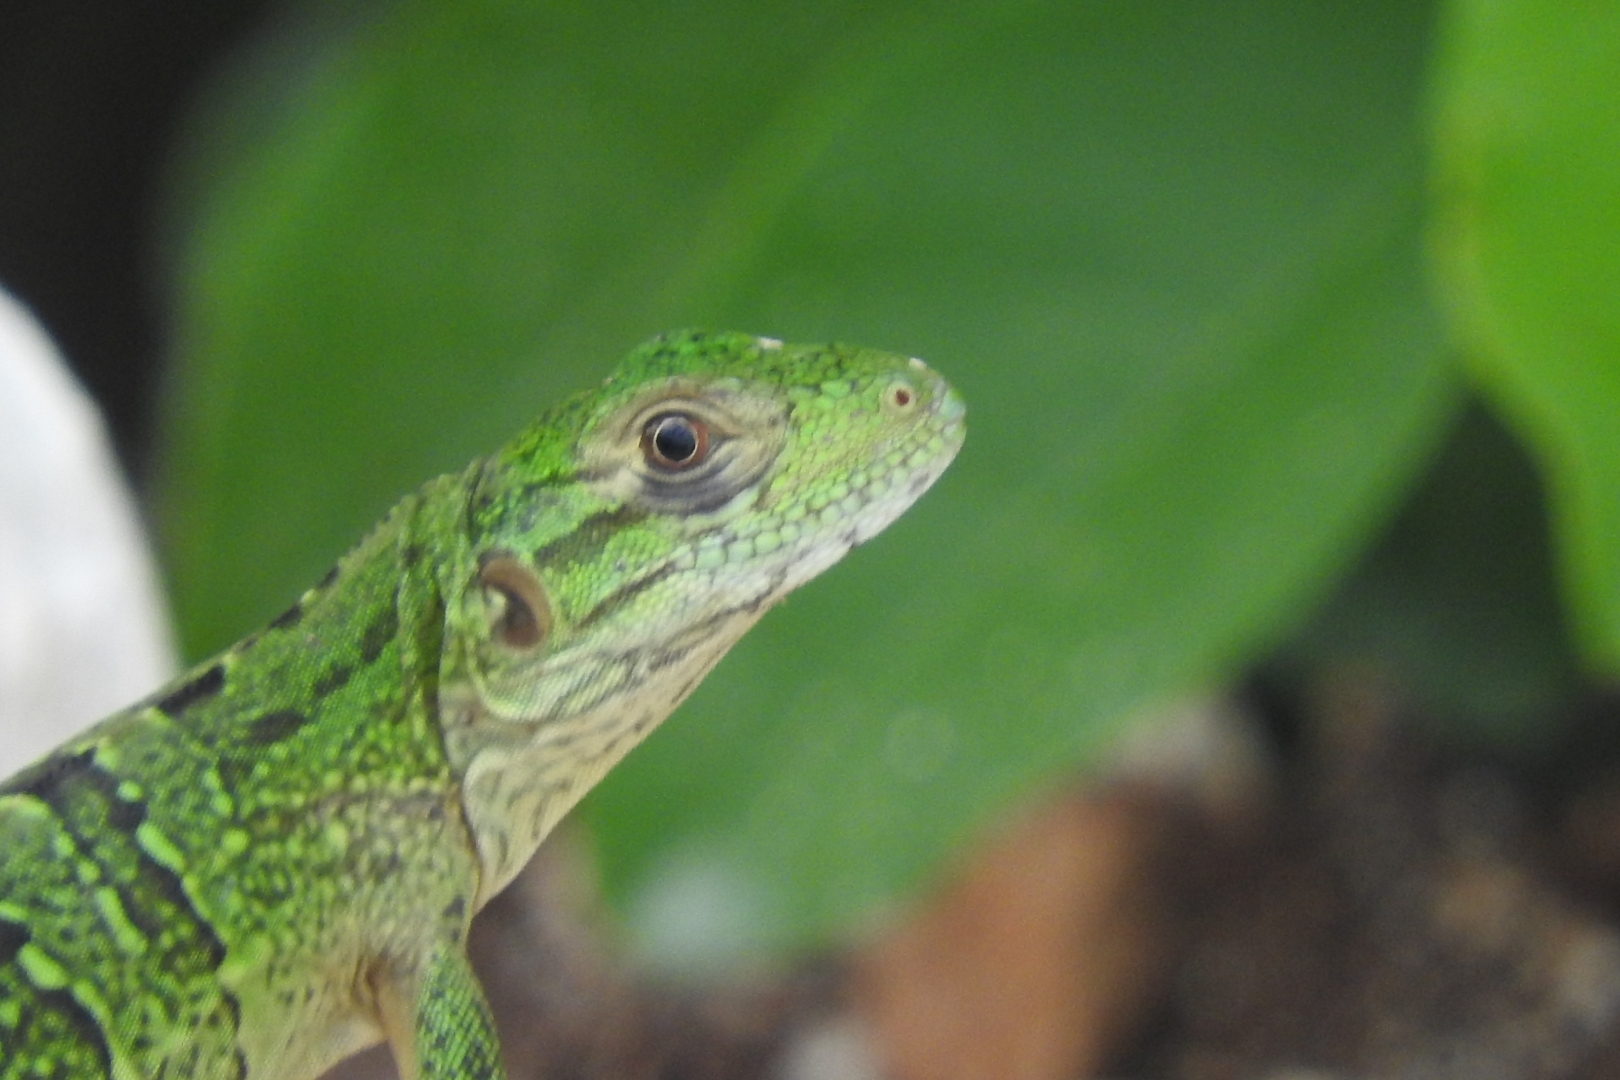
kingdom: Animalia
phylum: Chordata
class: Squamata
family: Iguanidae
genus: Ctenosaura
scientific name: Ctenosaura similis
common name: Black spiny-tailed iguana
